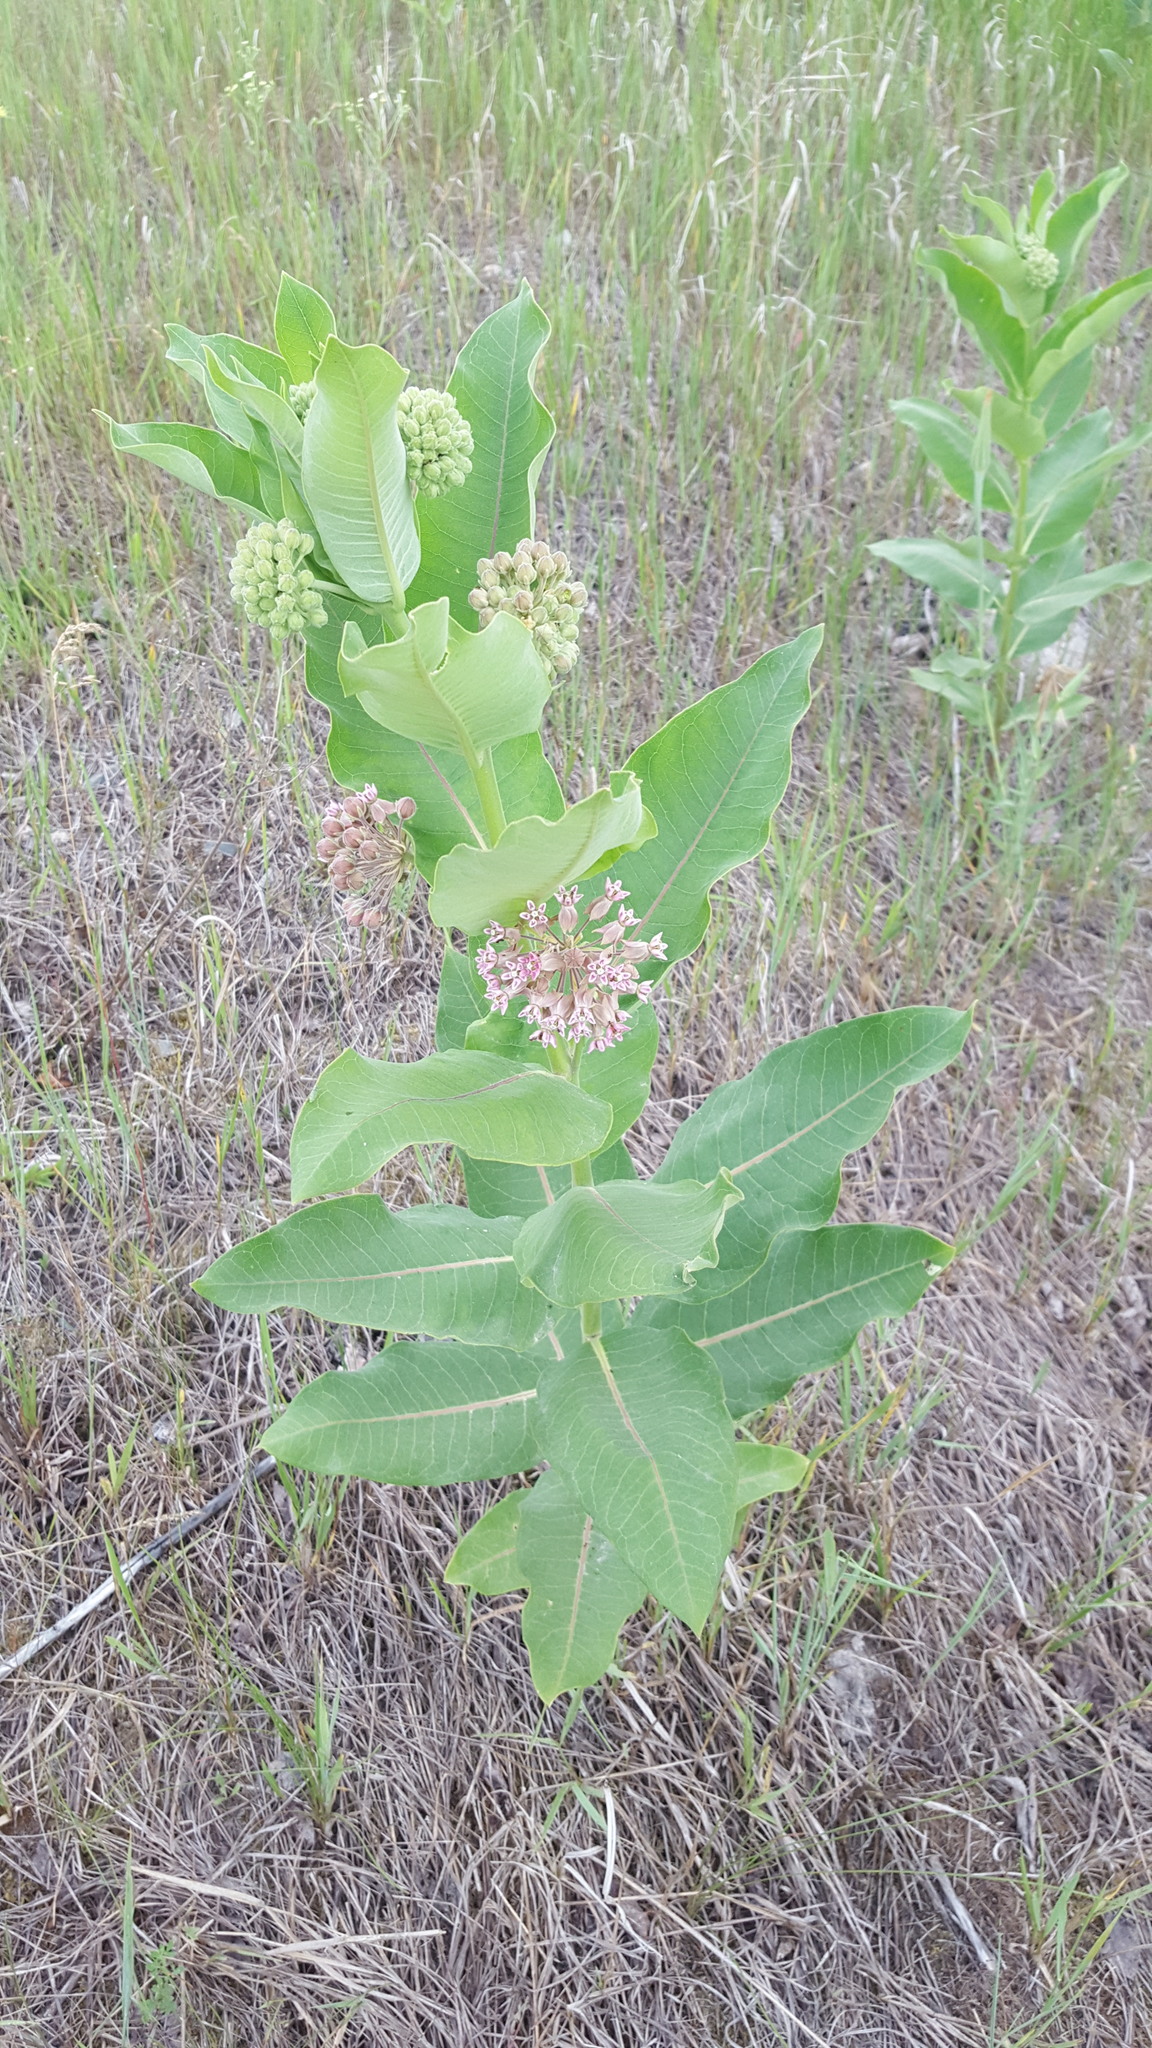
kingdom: Plantae
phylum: Tracheophyta
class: Magnoliopsida
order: Gentianales
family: Apocynaceae
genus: Asclepias
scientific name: Asclepias syriaca
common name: Common milkweed
